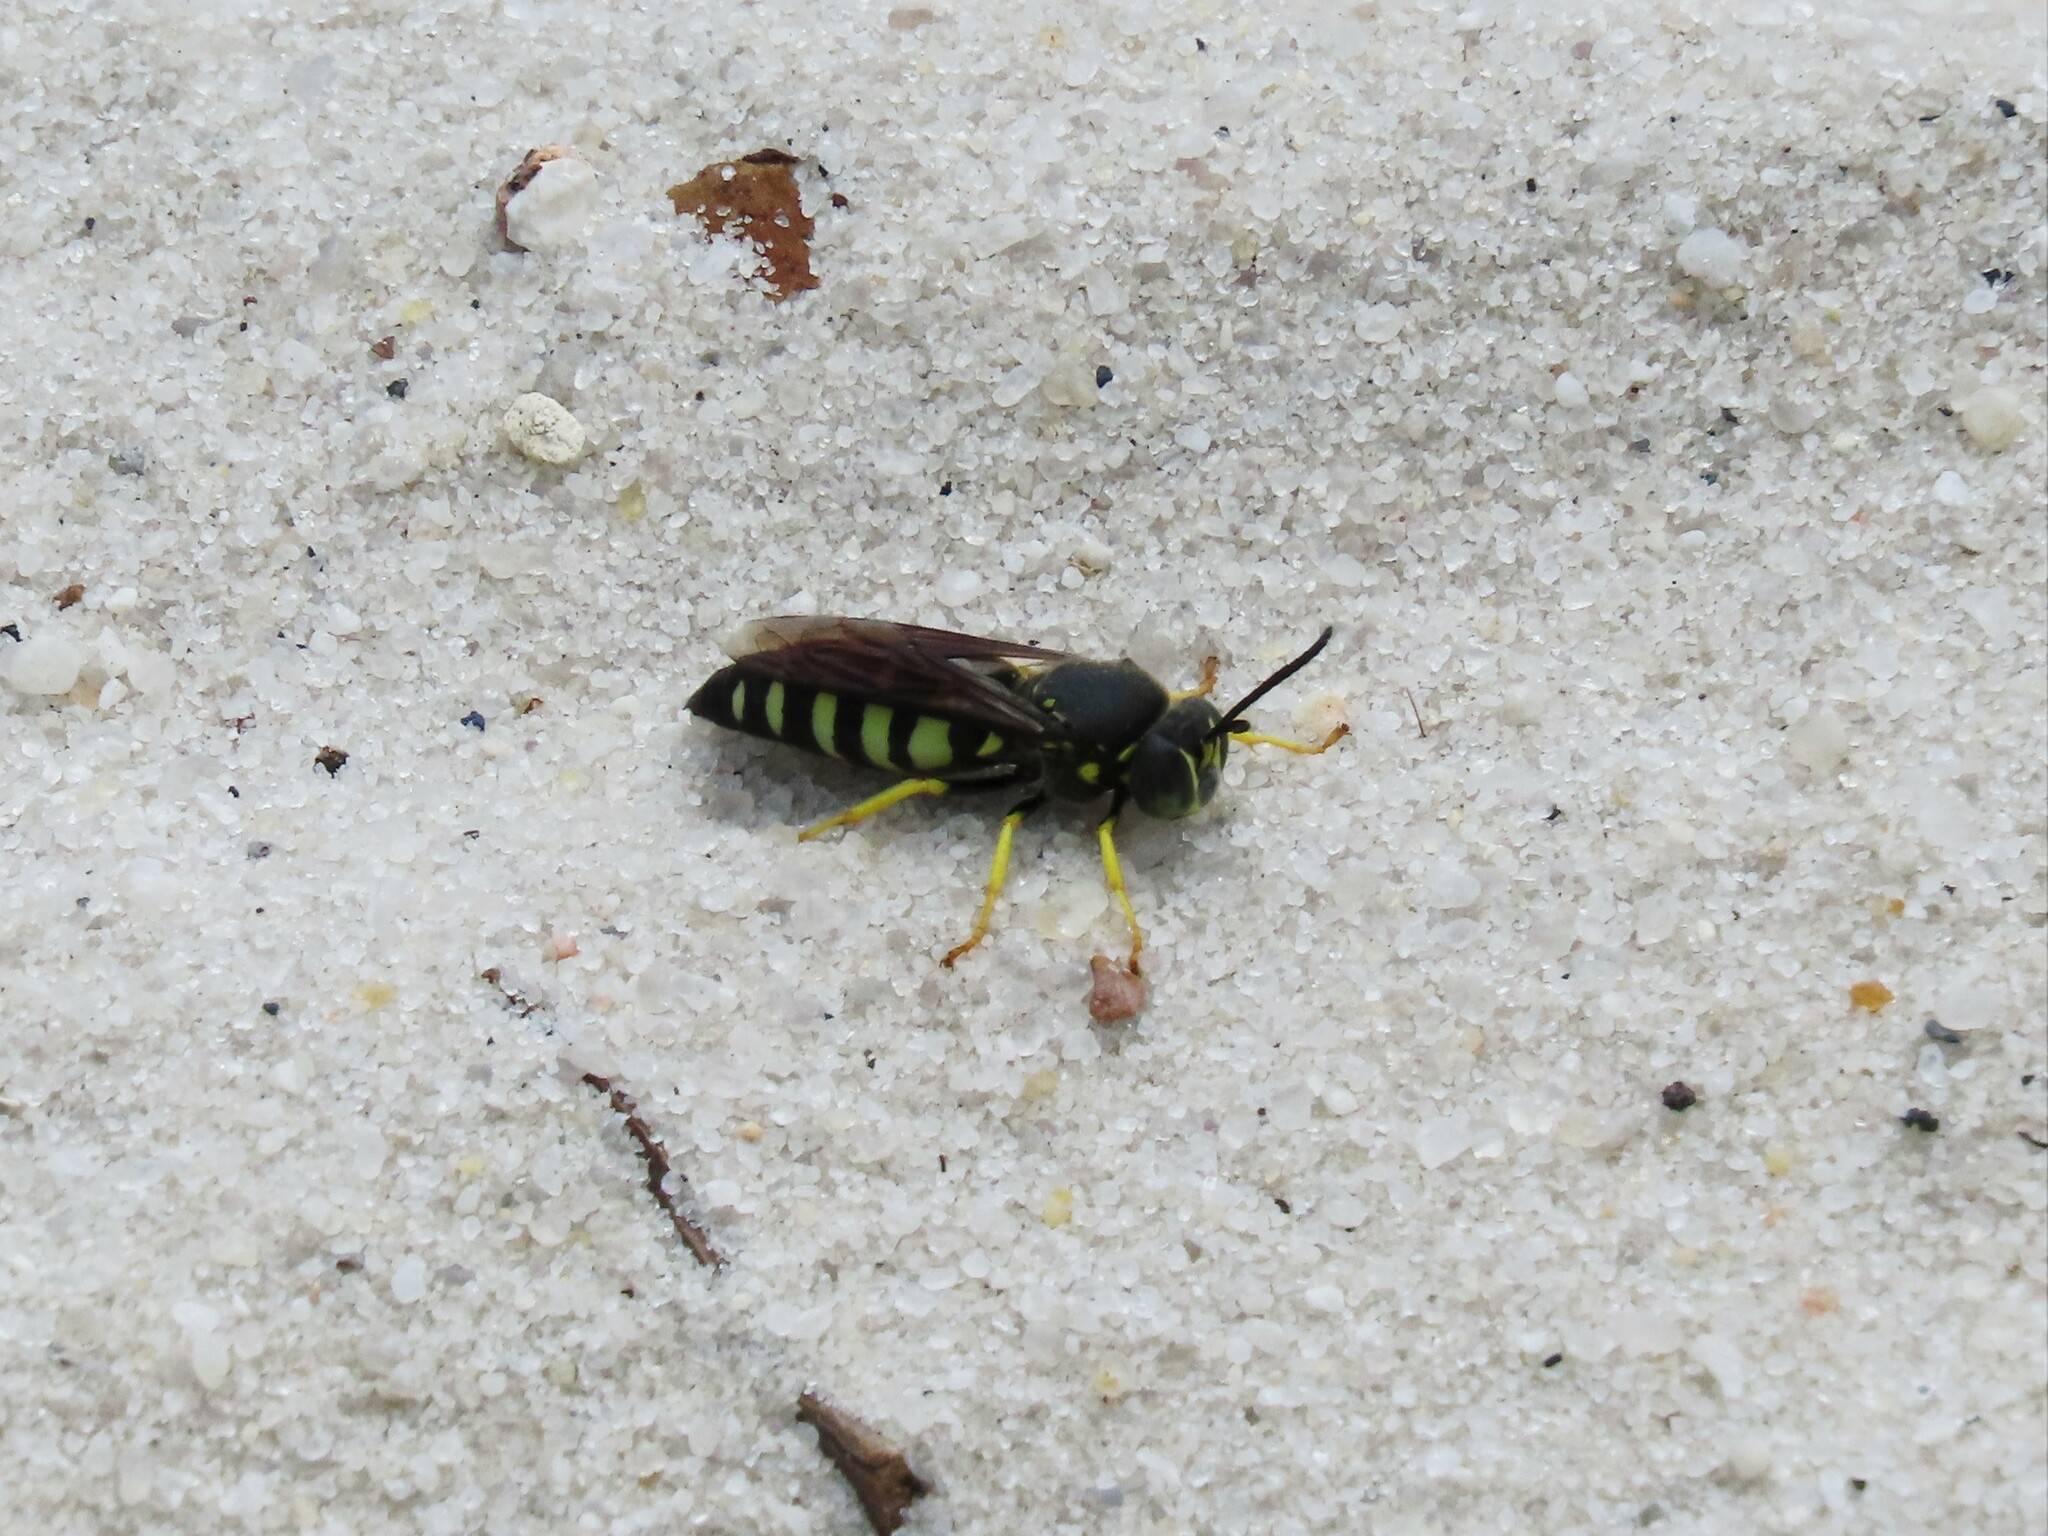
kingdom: Animalia
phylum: Arthropoda
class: Insecta
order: Hymenoptera
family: Crabronidae
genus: Bicyrtes
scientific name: Bicyrtes quadrifasciatus
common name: Four-banded stink bug hunter wasp
